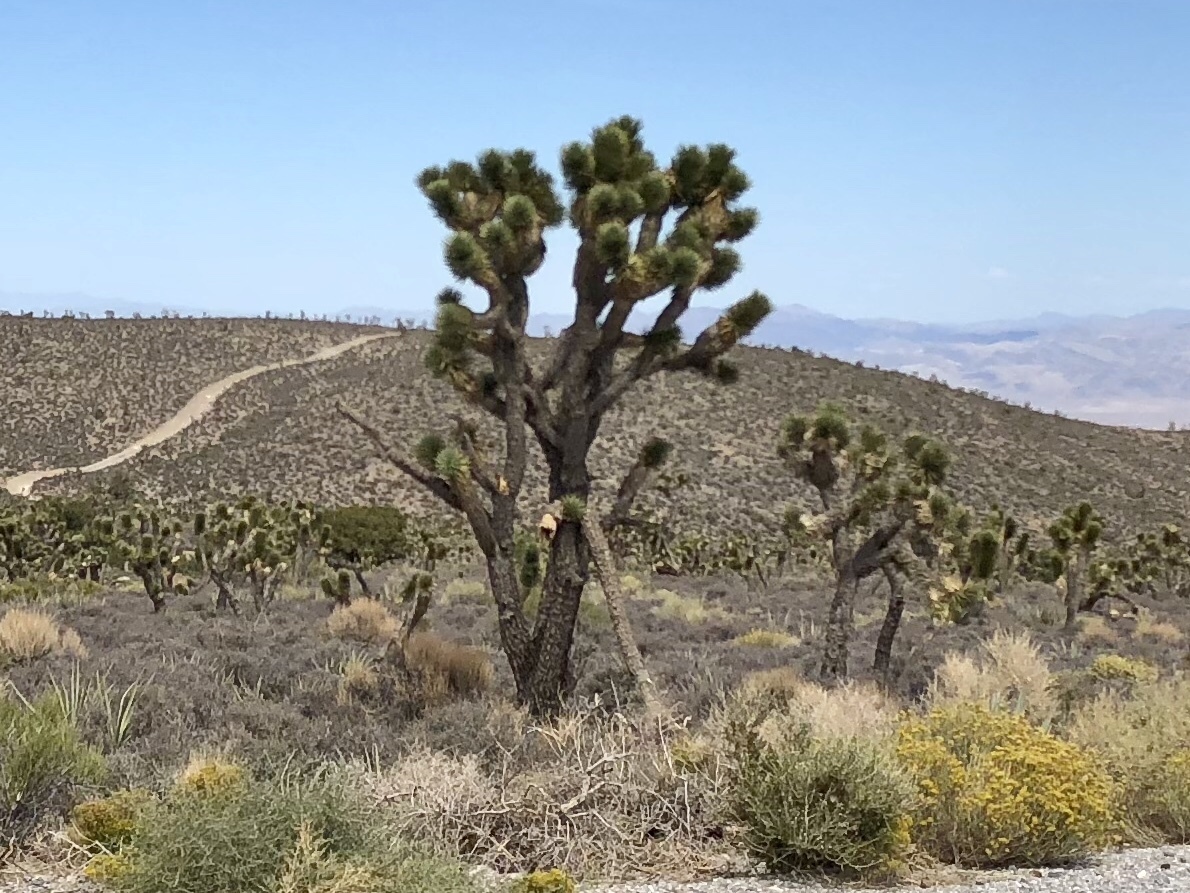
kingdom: Plantae
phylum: Tracheophyta
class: Liliopsida
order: Asparagales
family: Asparagaceae
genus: Yucca
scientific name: Yucca brevifolia
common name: Joshua tree
